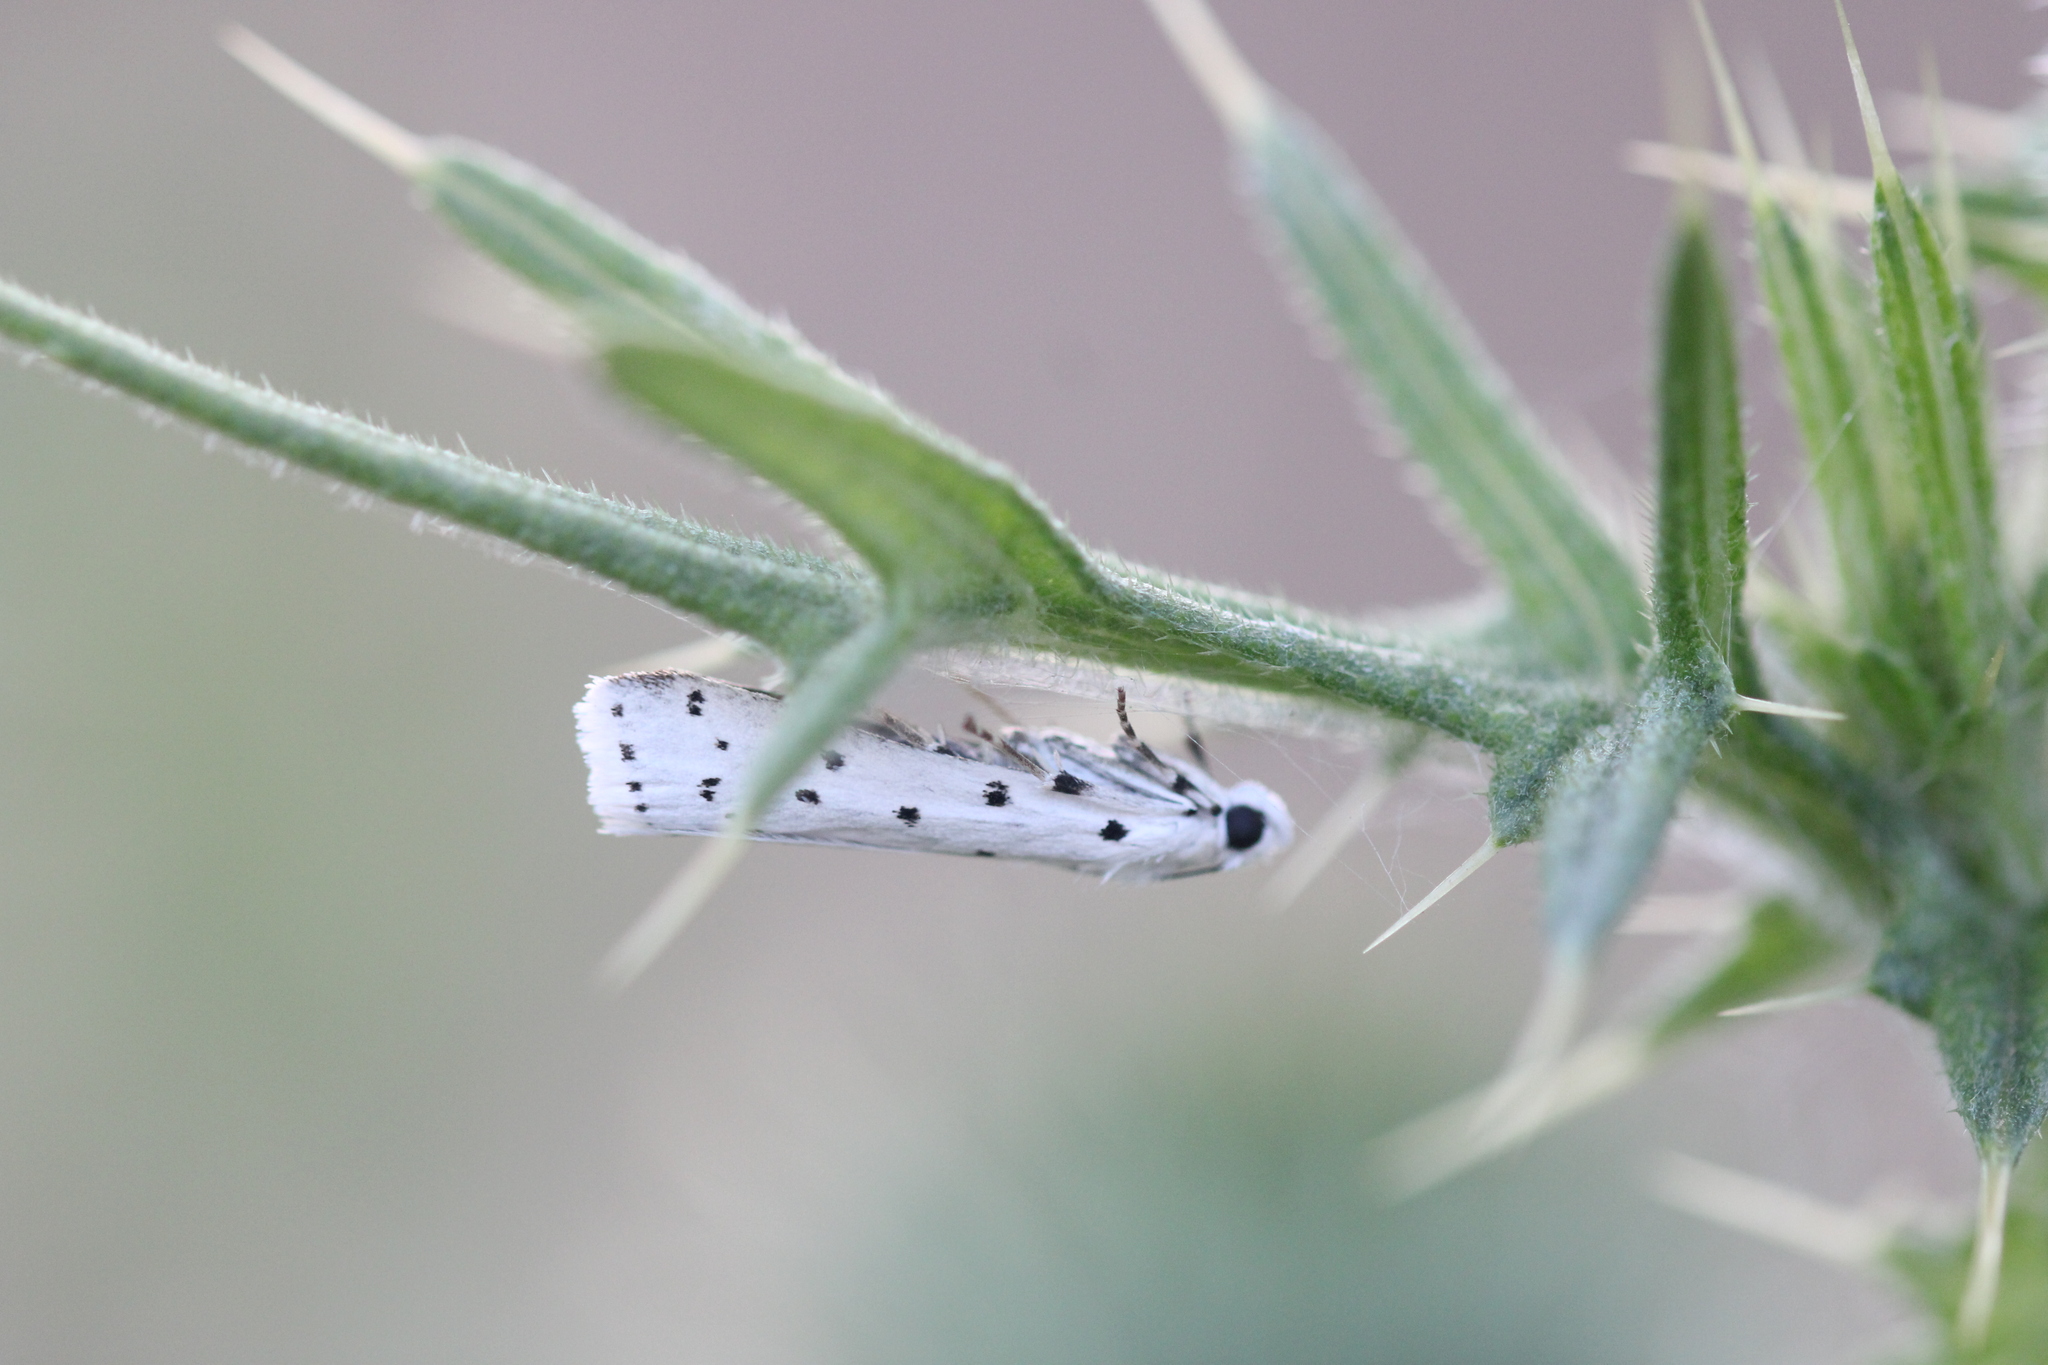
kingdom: Animalia
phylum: Arthropoda
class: Insecta
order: Lepidoptera
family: Pyralidae
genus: Myelois
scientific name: Myelois circumvoluta
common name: Thistle ermine
